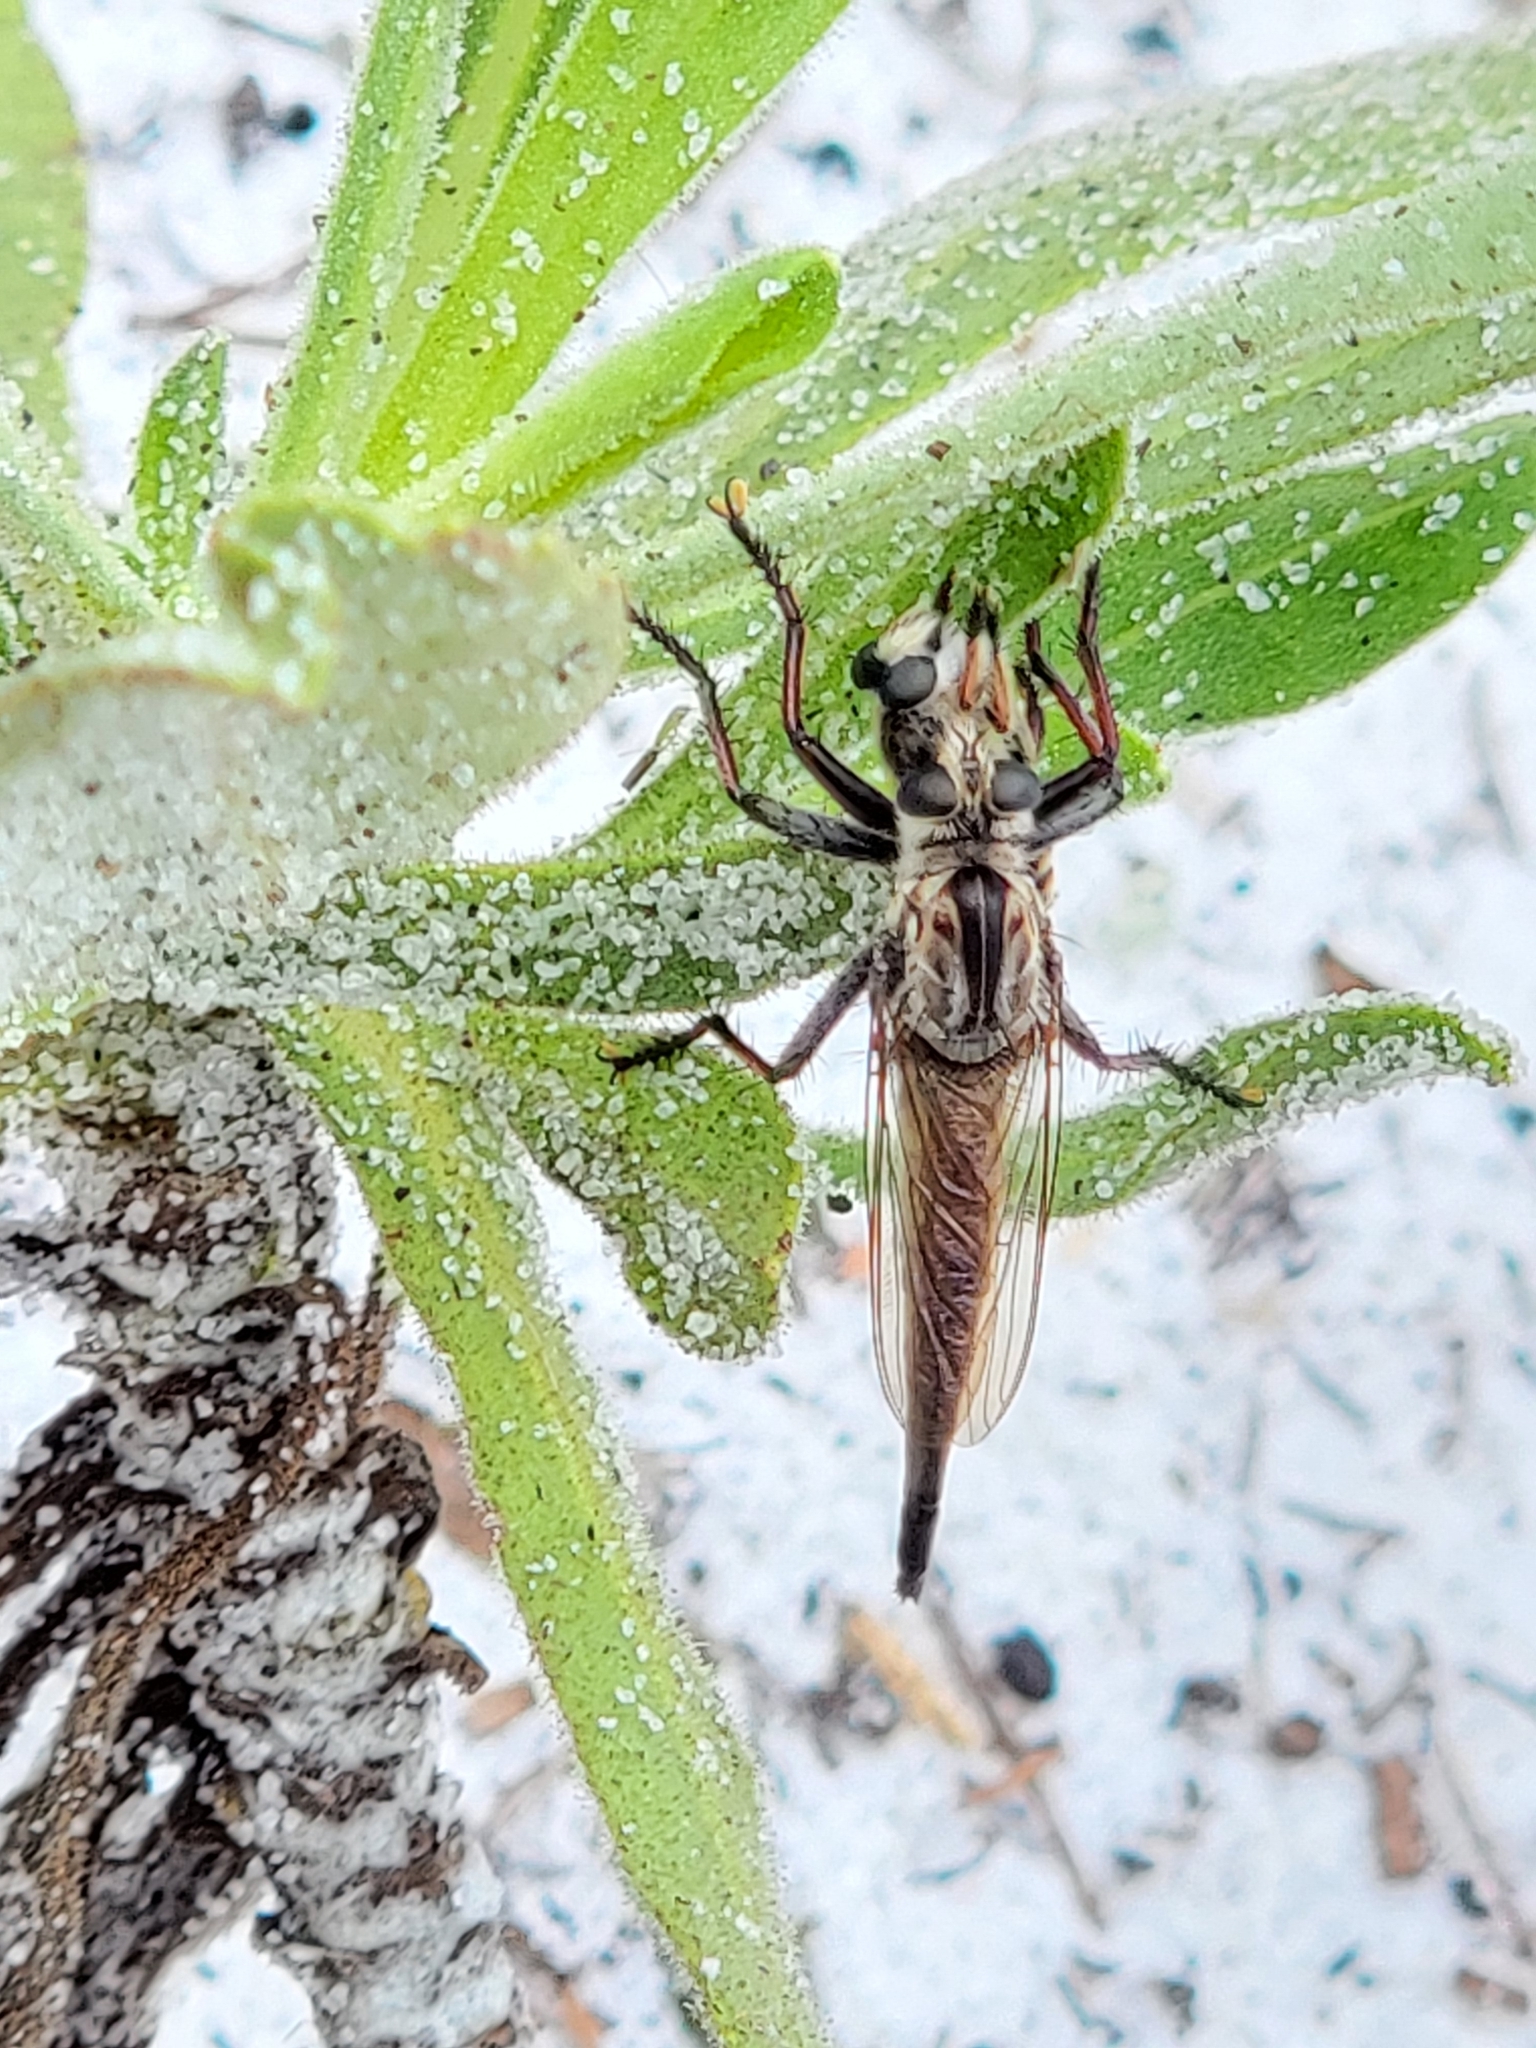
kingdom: Animalia
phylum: Arthropoda
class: Insecta
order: Diptera
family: Asilidae
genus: Proctacanthus
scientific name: Proctacanthus brevipennis
